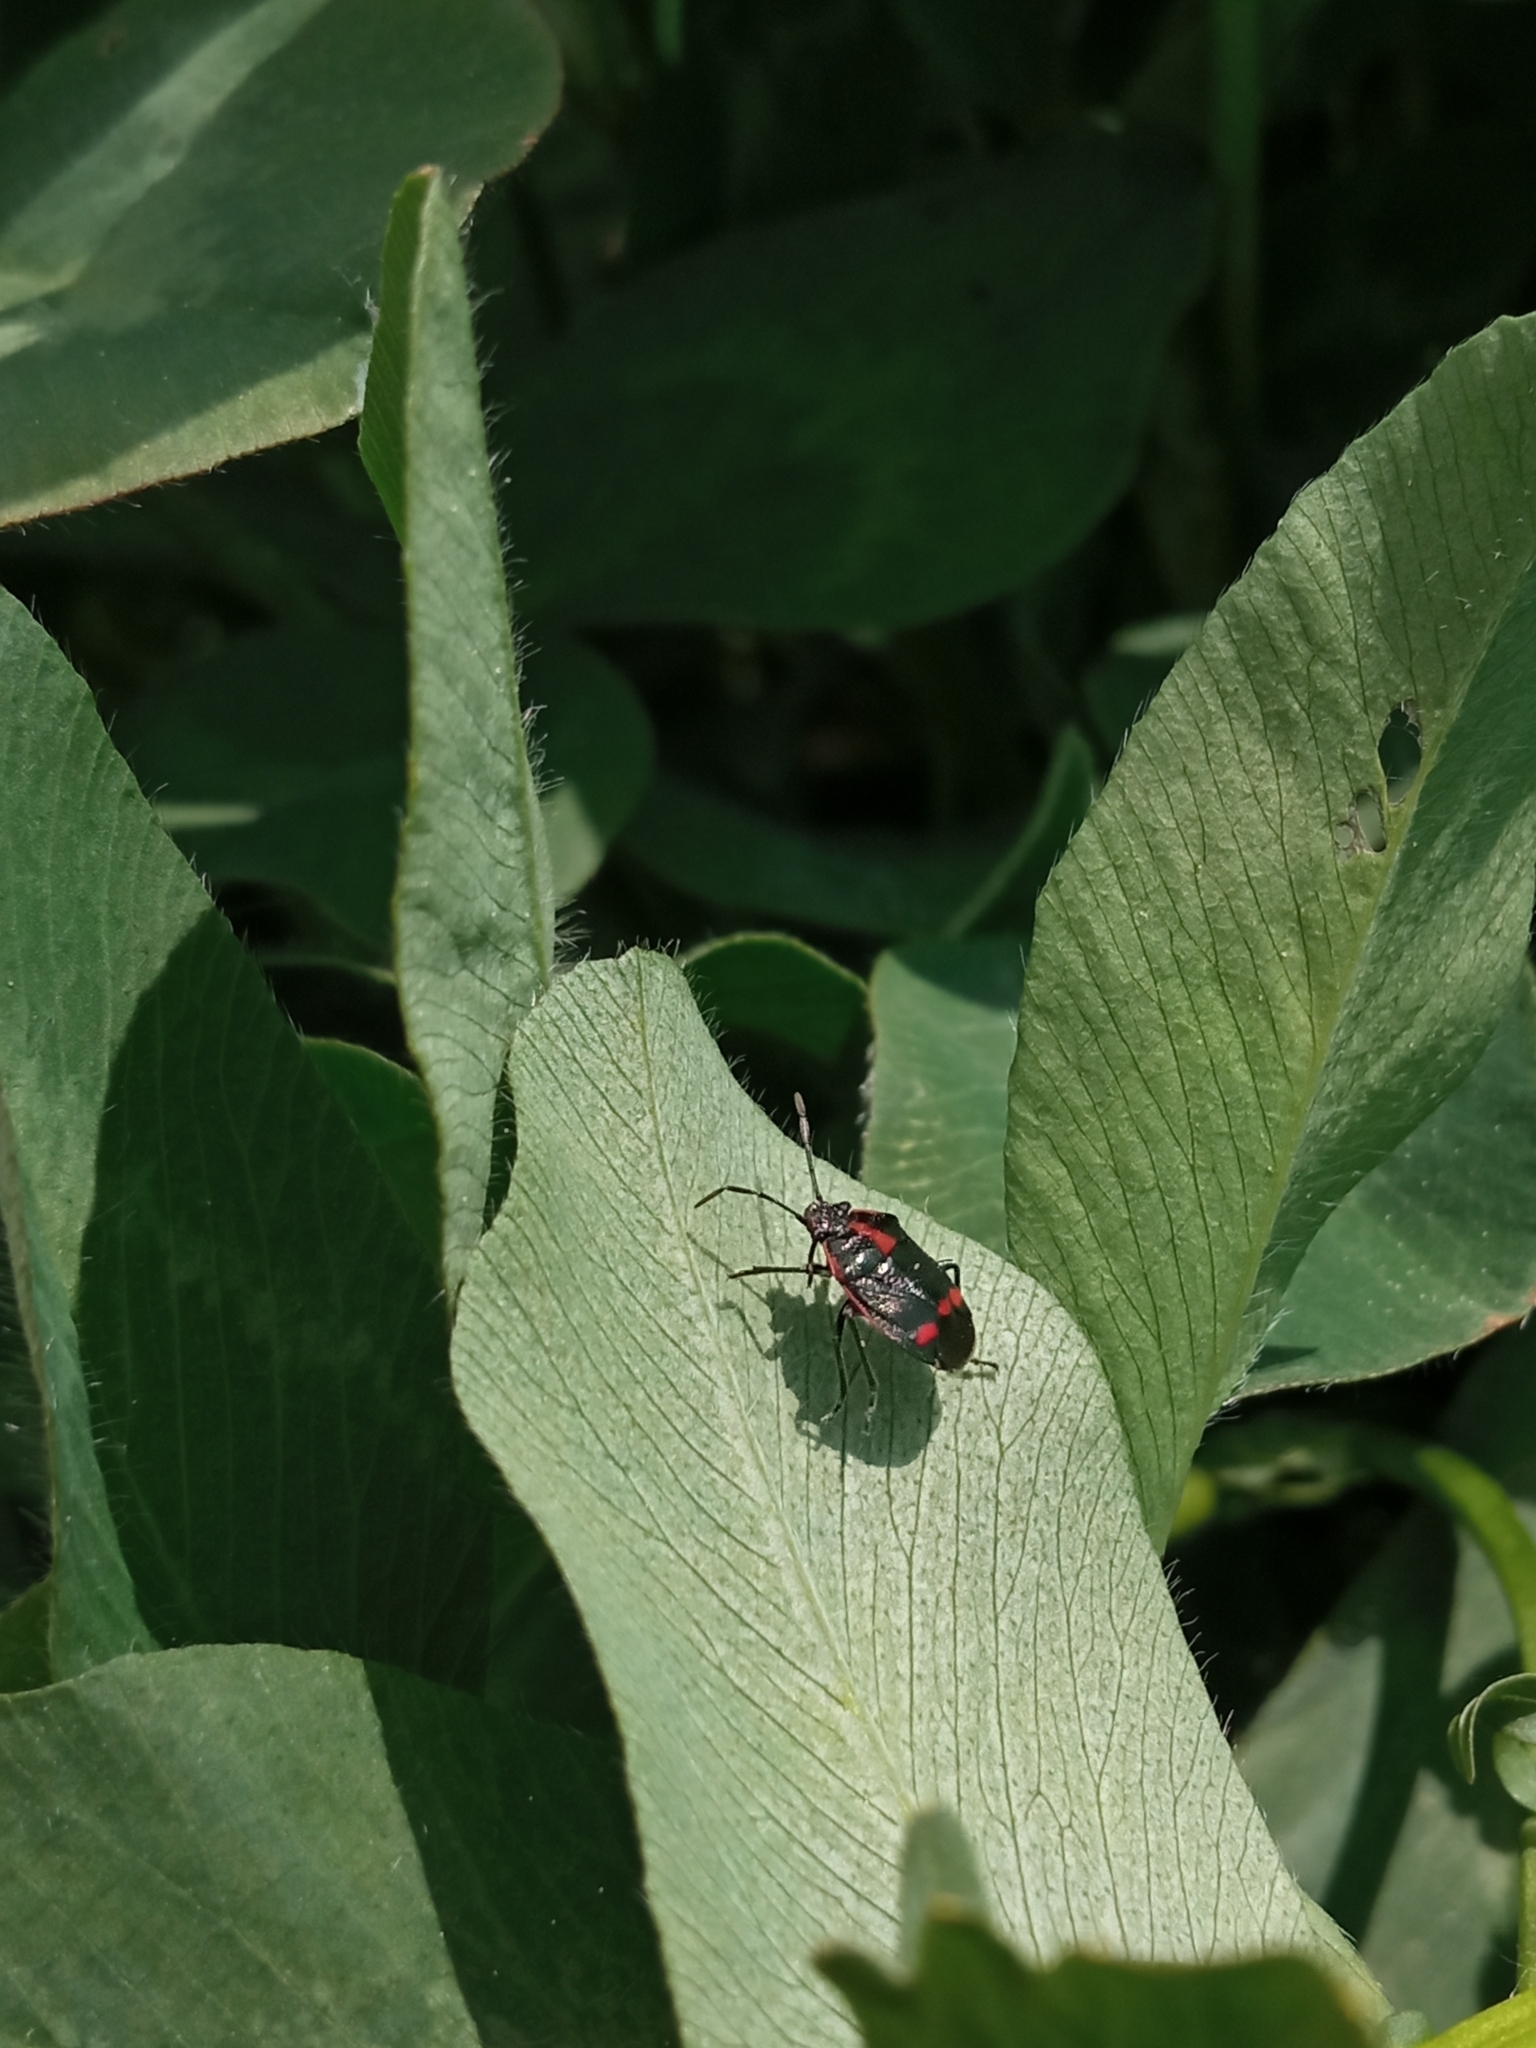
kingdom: Animalia
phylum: Arthropoda
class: Insecta
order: Hemiptera
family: Pentatomidae
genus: Eurydema
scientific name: Eurydema oleracea
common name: Cabbage bug
